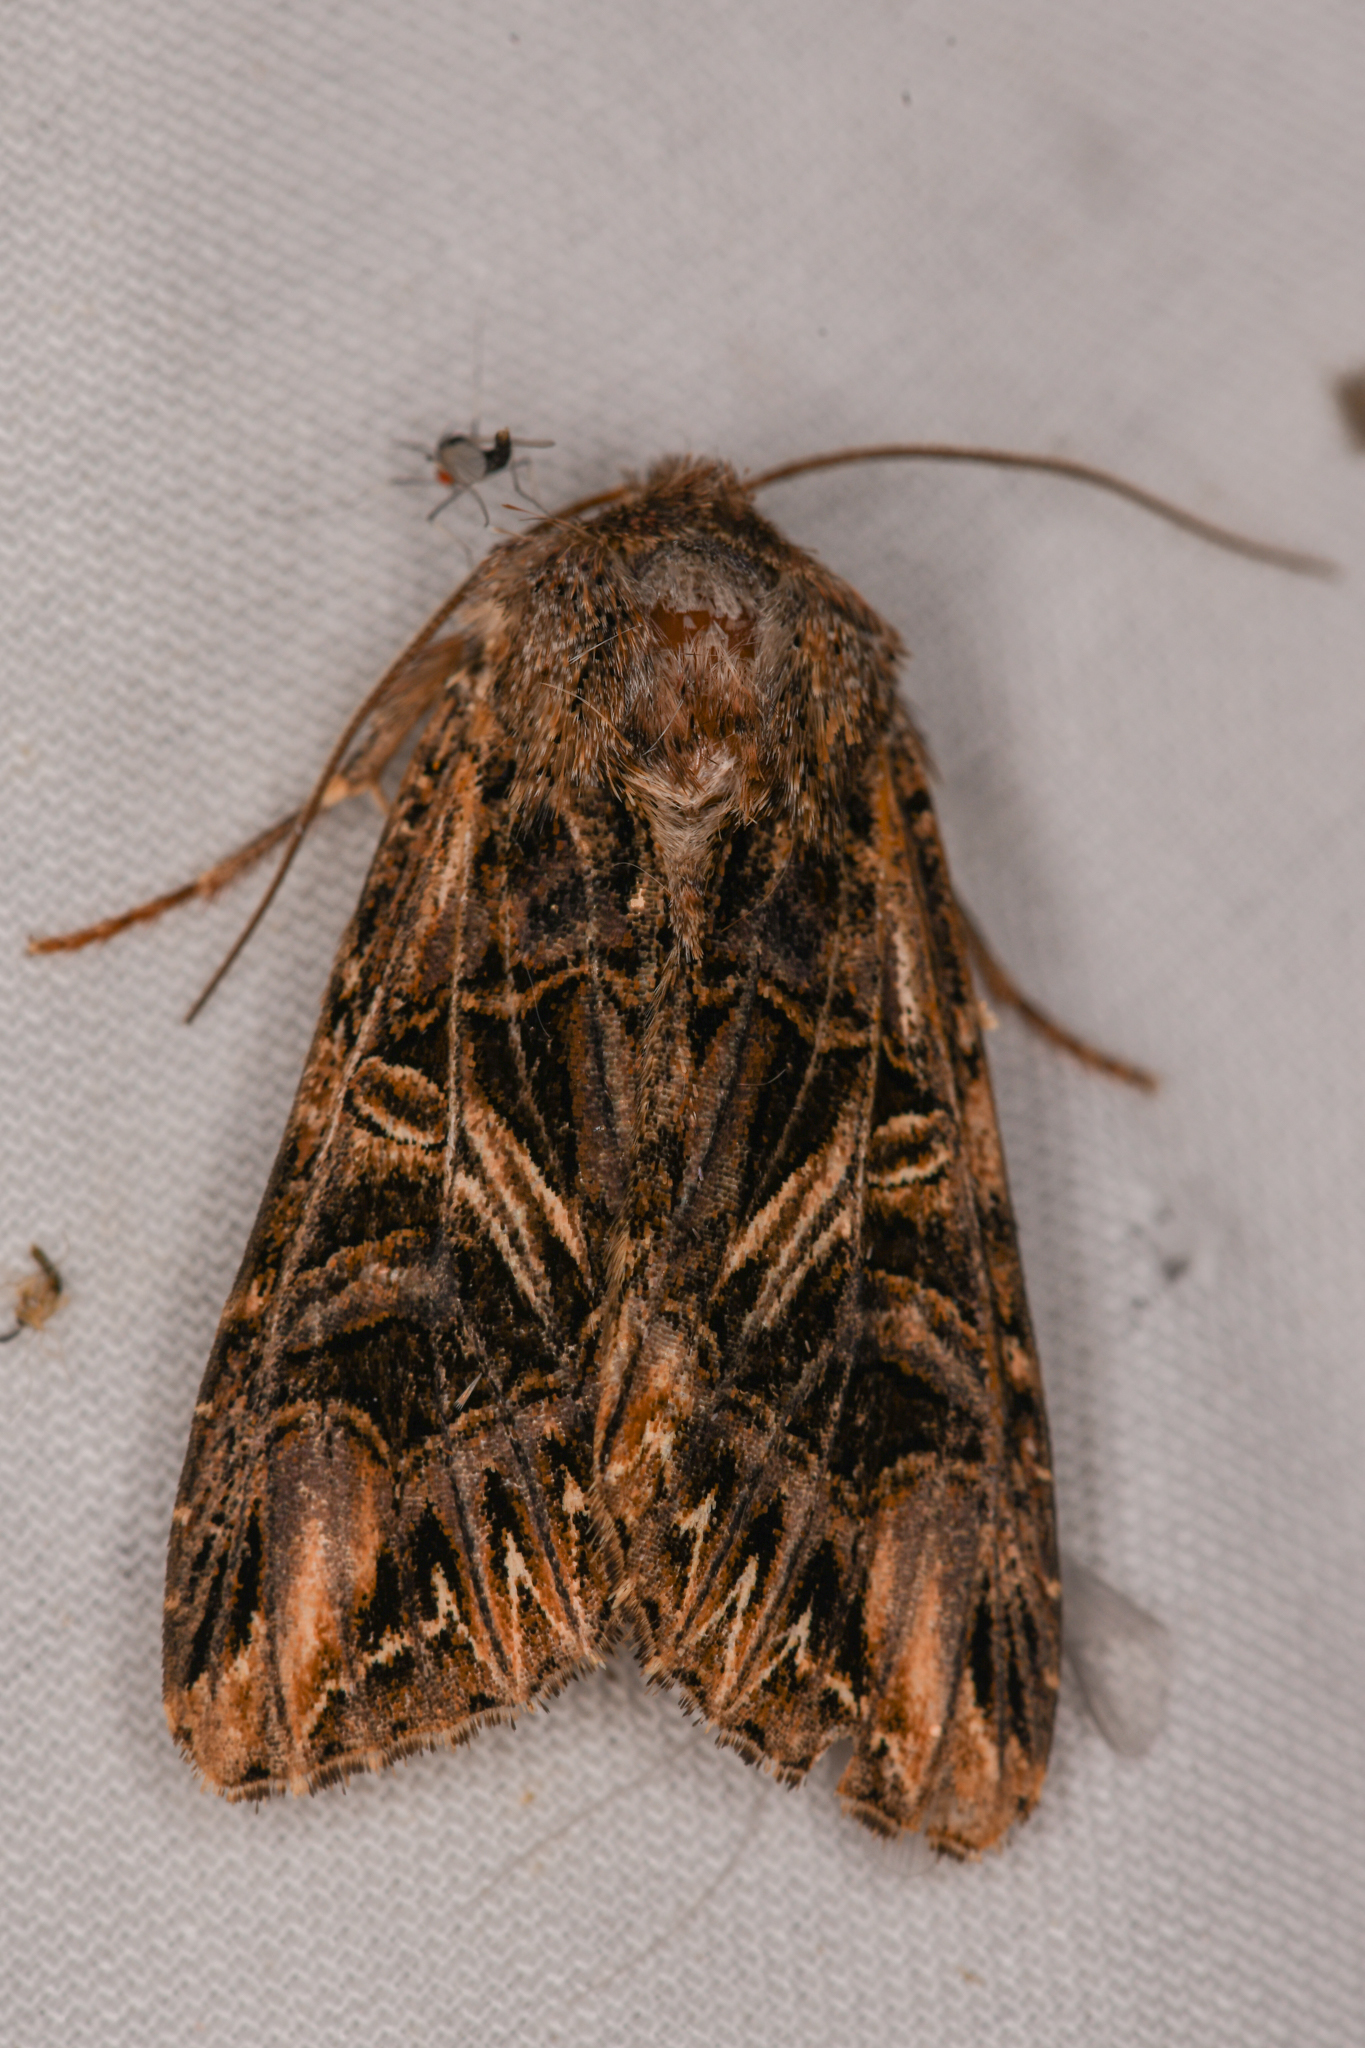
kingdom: Animalia
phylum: Arthropoda
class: Insecta
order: Lepidoptera
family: Noctuidae
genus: Anarta
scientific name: Anarta farnhami
